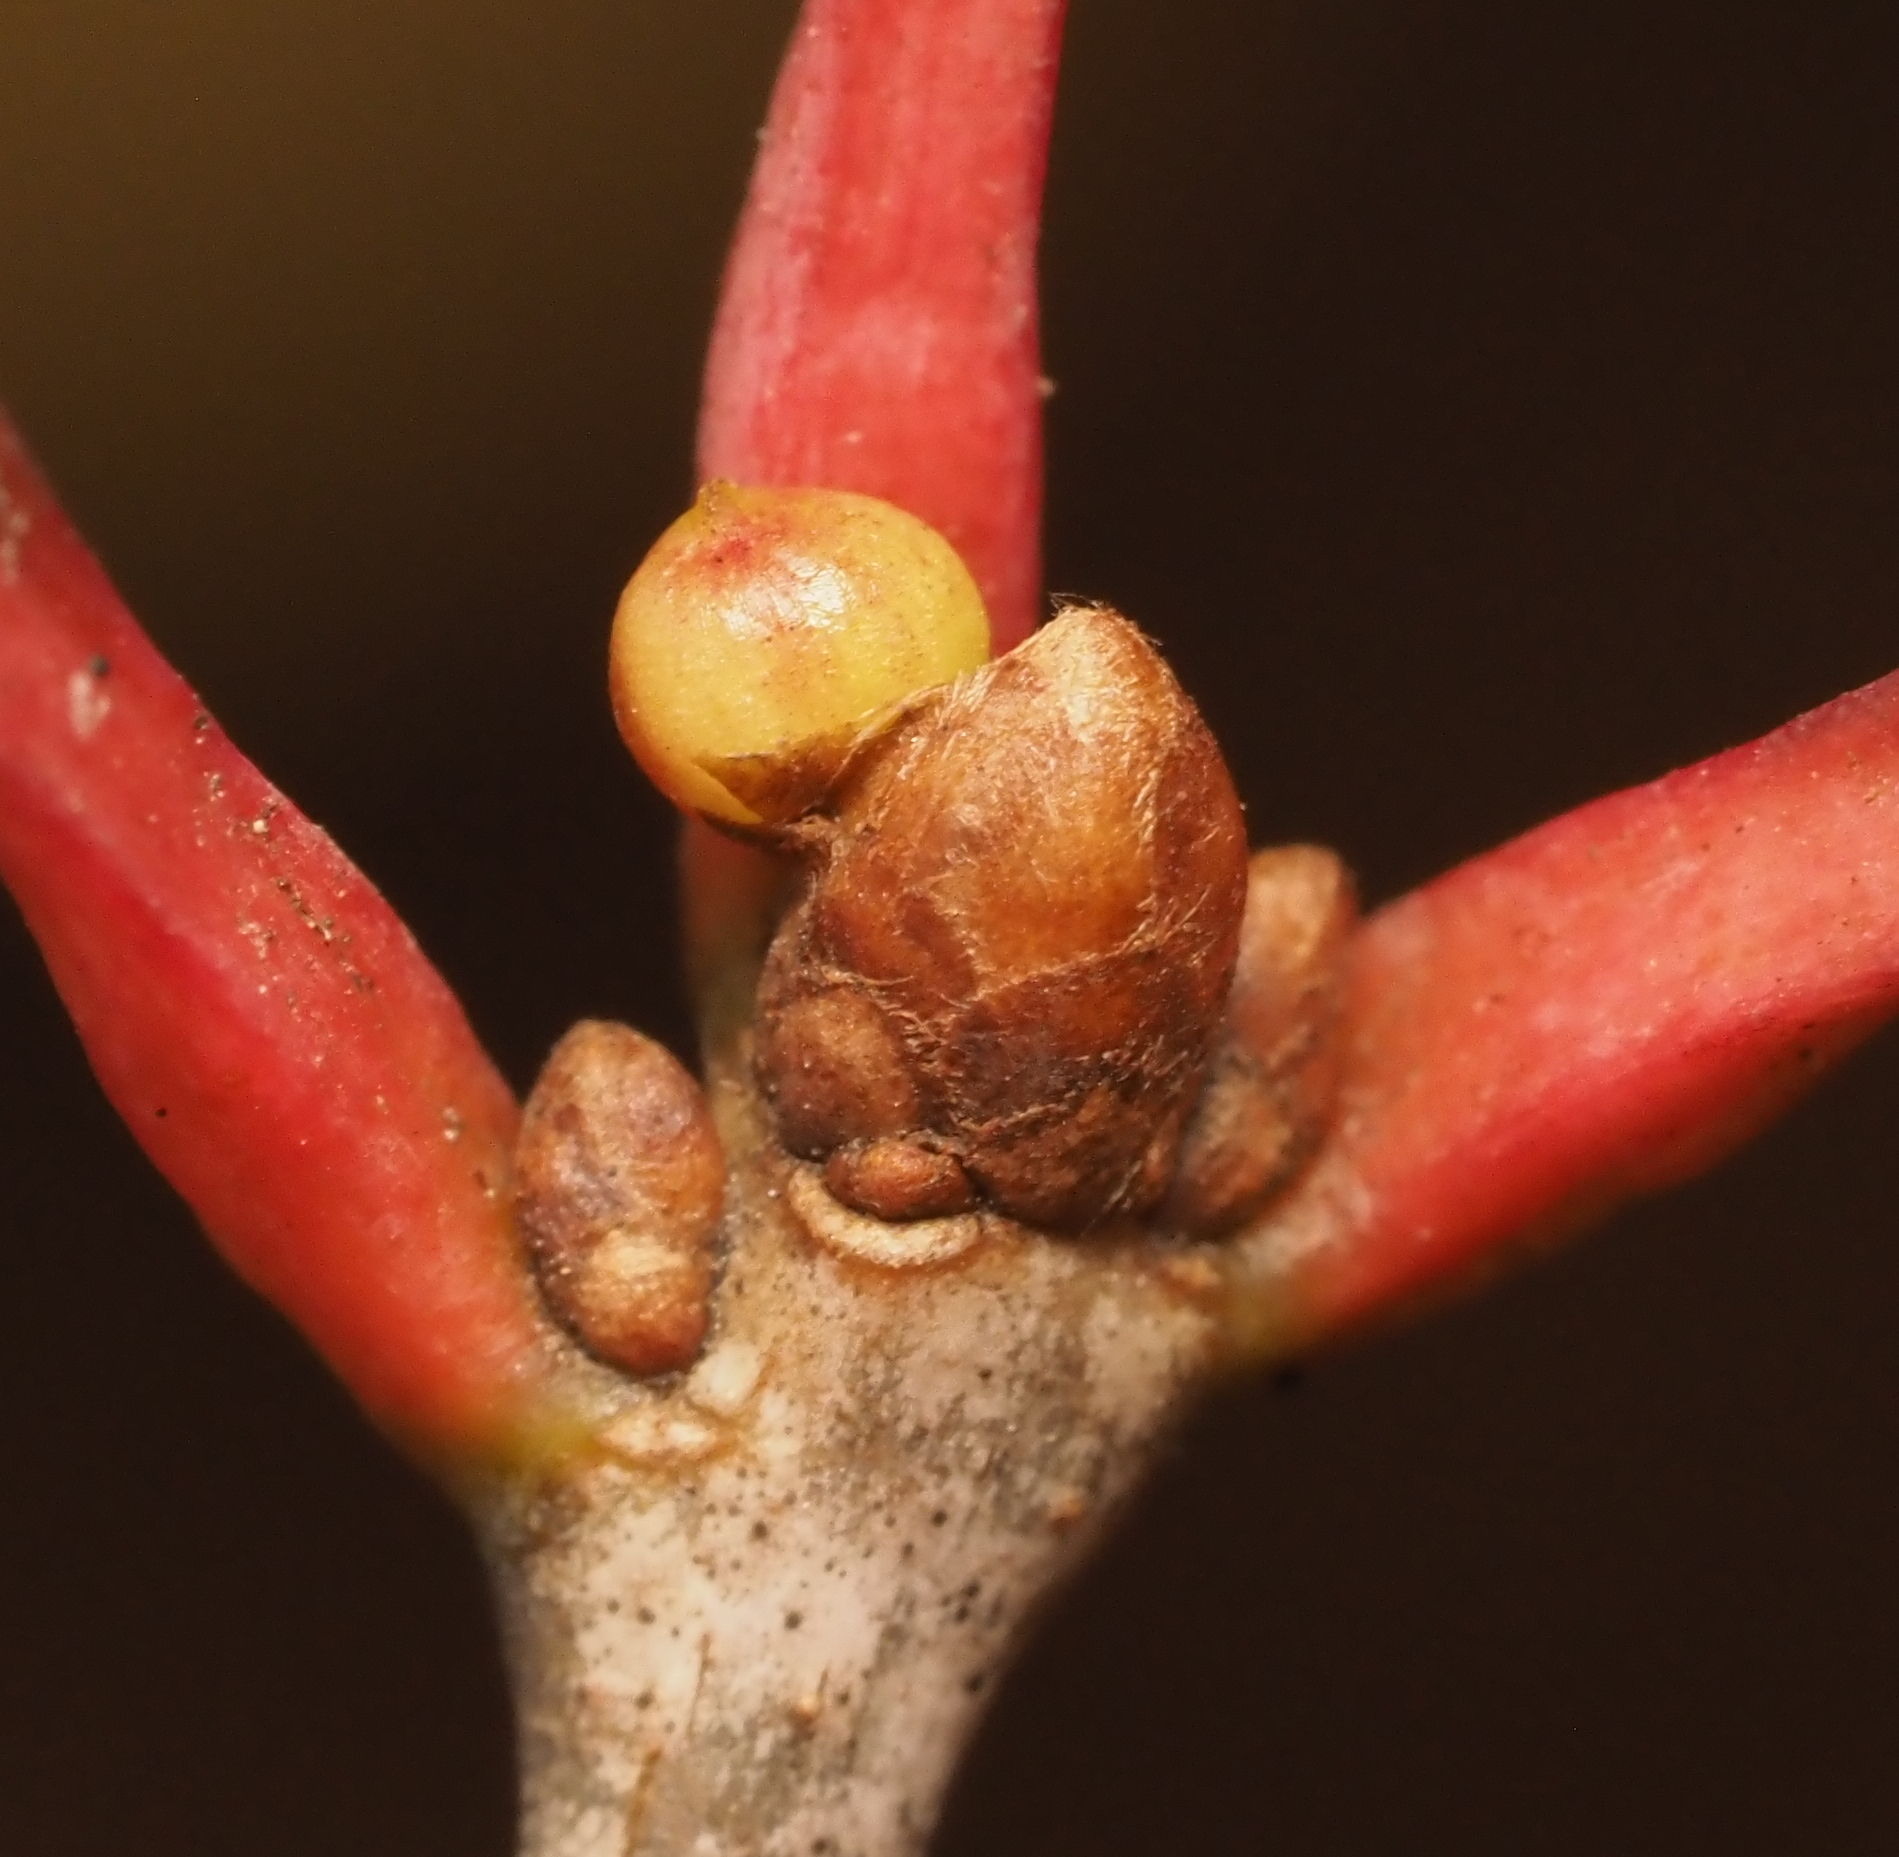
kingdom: Animalia
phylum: Arthropoda
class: Insecta
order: Hymenoptera
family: Cynipidae
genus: Andricus
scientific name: Andricus
